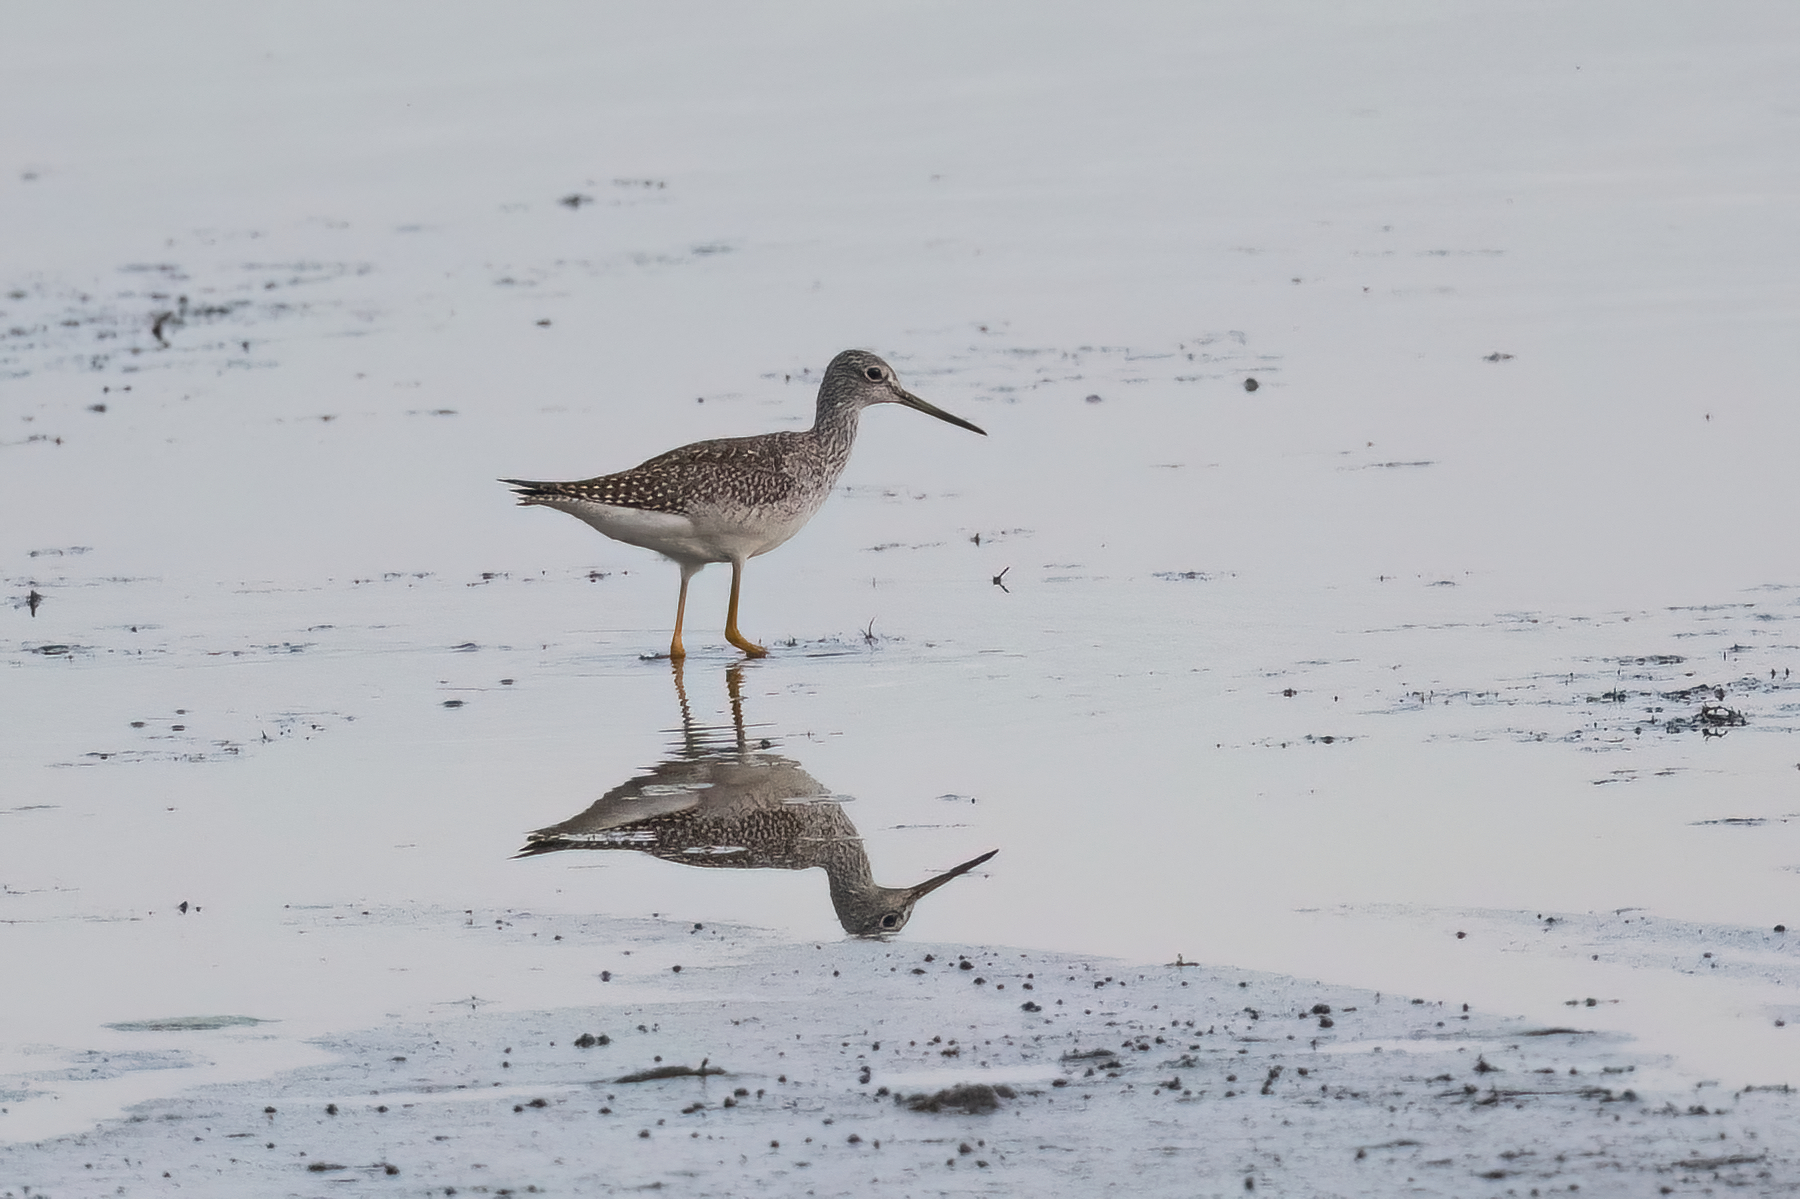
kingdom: Animalia
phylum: Chordata
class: Aves
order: Charadriiformes
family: Scolopacidae
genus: Tringa
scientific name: Tringa melanoleuca
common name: Greater yellowlegs
